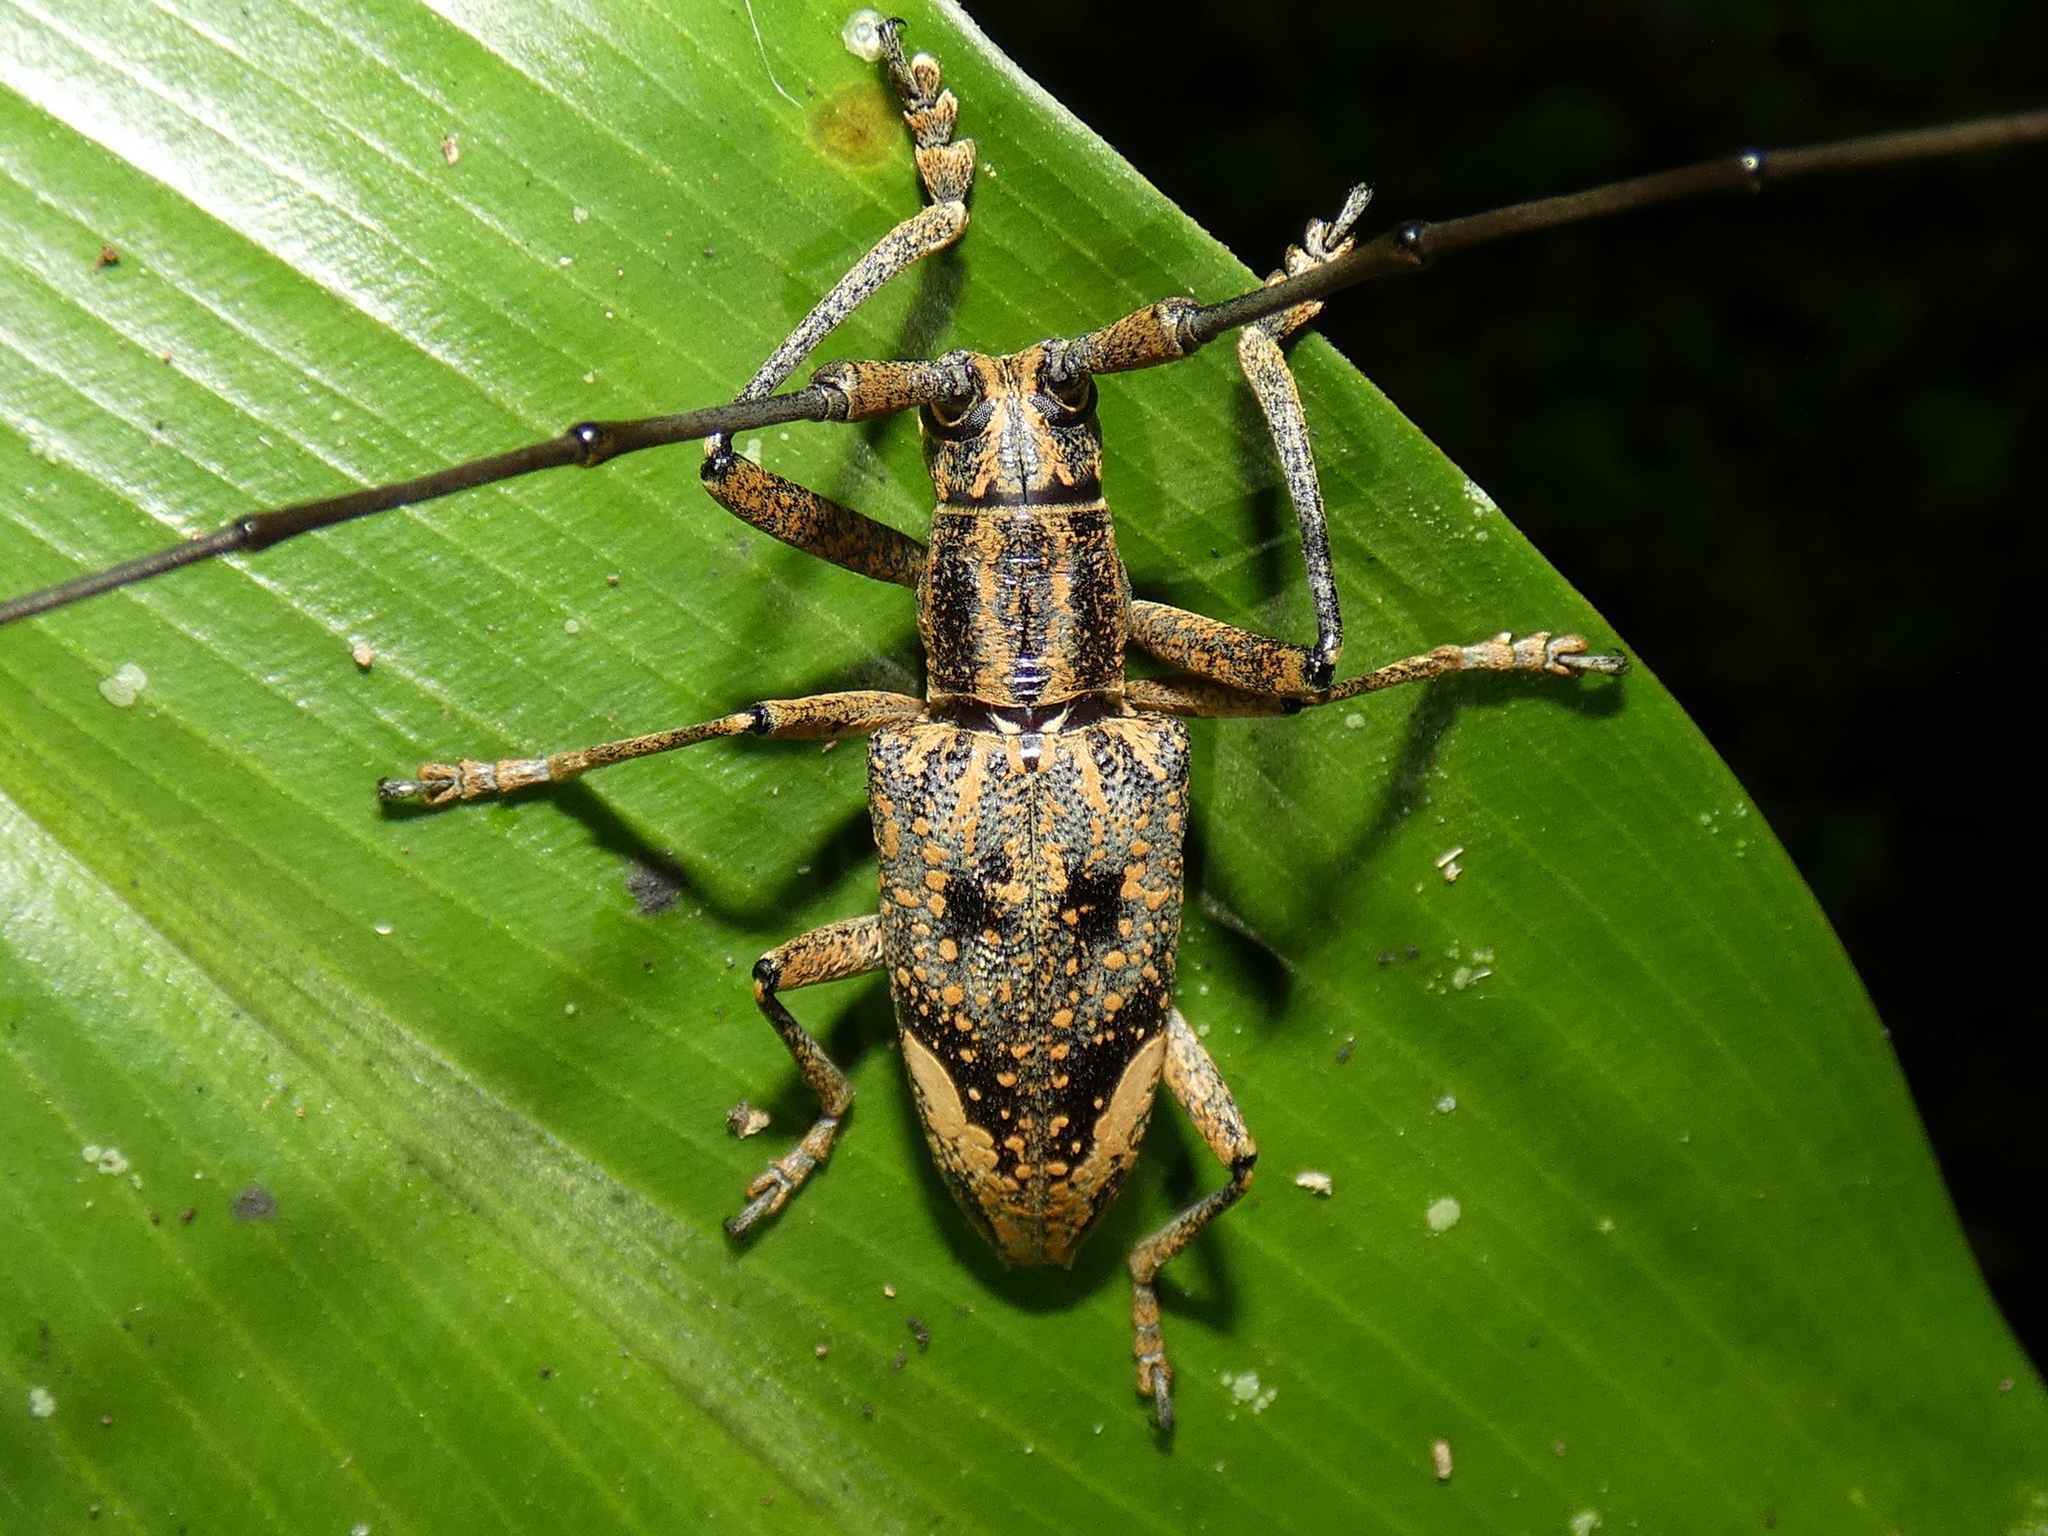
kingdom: Animalia
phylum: Arthropoda
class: Insecta
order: Coleoptera
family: Cerambycidae
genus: Pelargoderus
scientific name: Pelargoderus rubropunctatus
